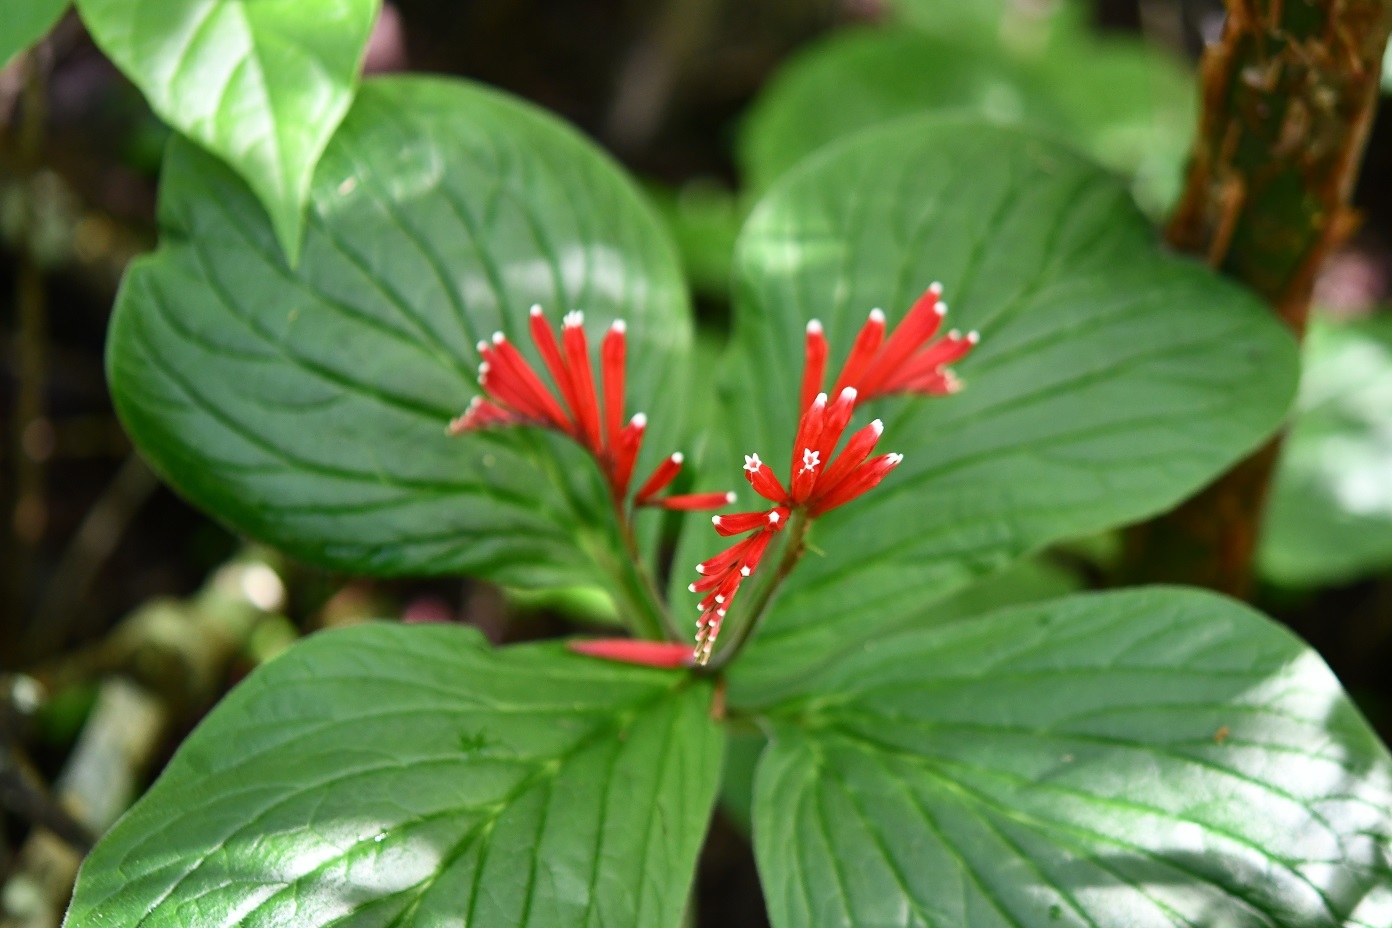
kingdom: Plantae
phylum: Tracheophyta
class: Magnoliopsida
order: Gentianales
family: Loganiaceae
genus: Spigelia
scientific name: Spigelia splendens
